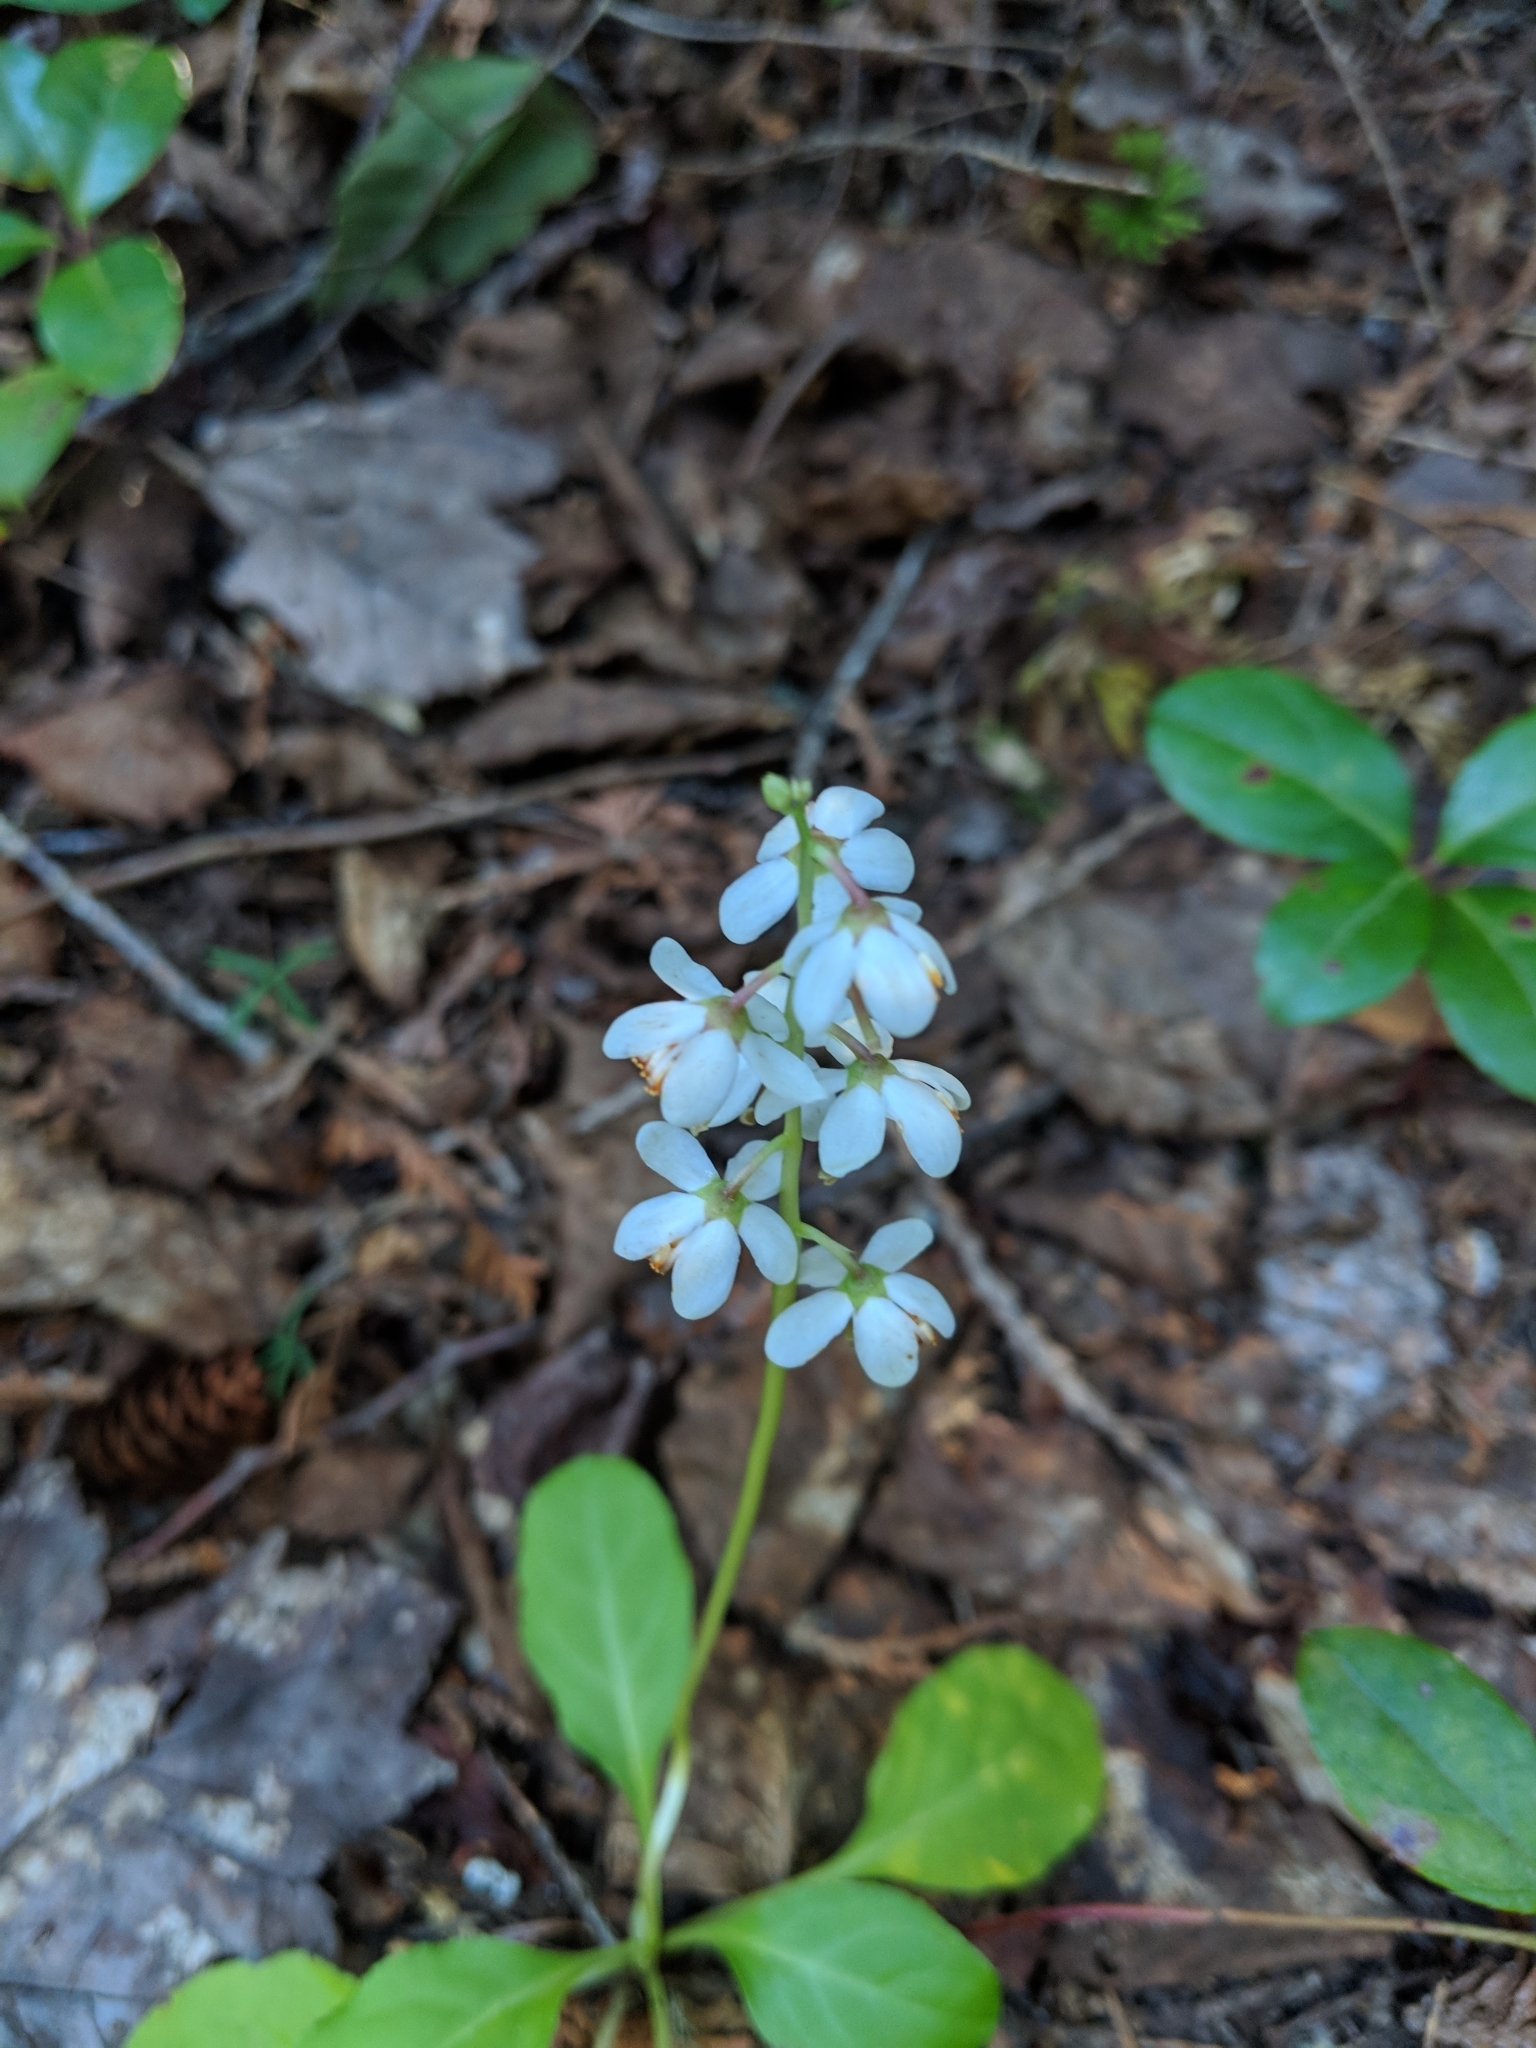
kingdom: Plantae
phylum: Tracheophyta
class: Magnoliopsida
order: Ericales
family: Ericaceae
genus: Pyrola
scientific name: Pyrola elliptica
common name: Shinleaf
